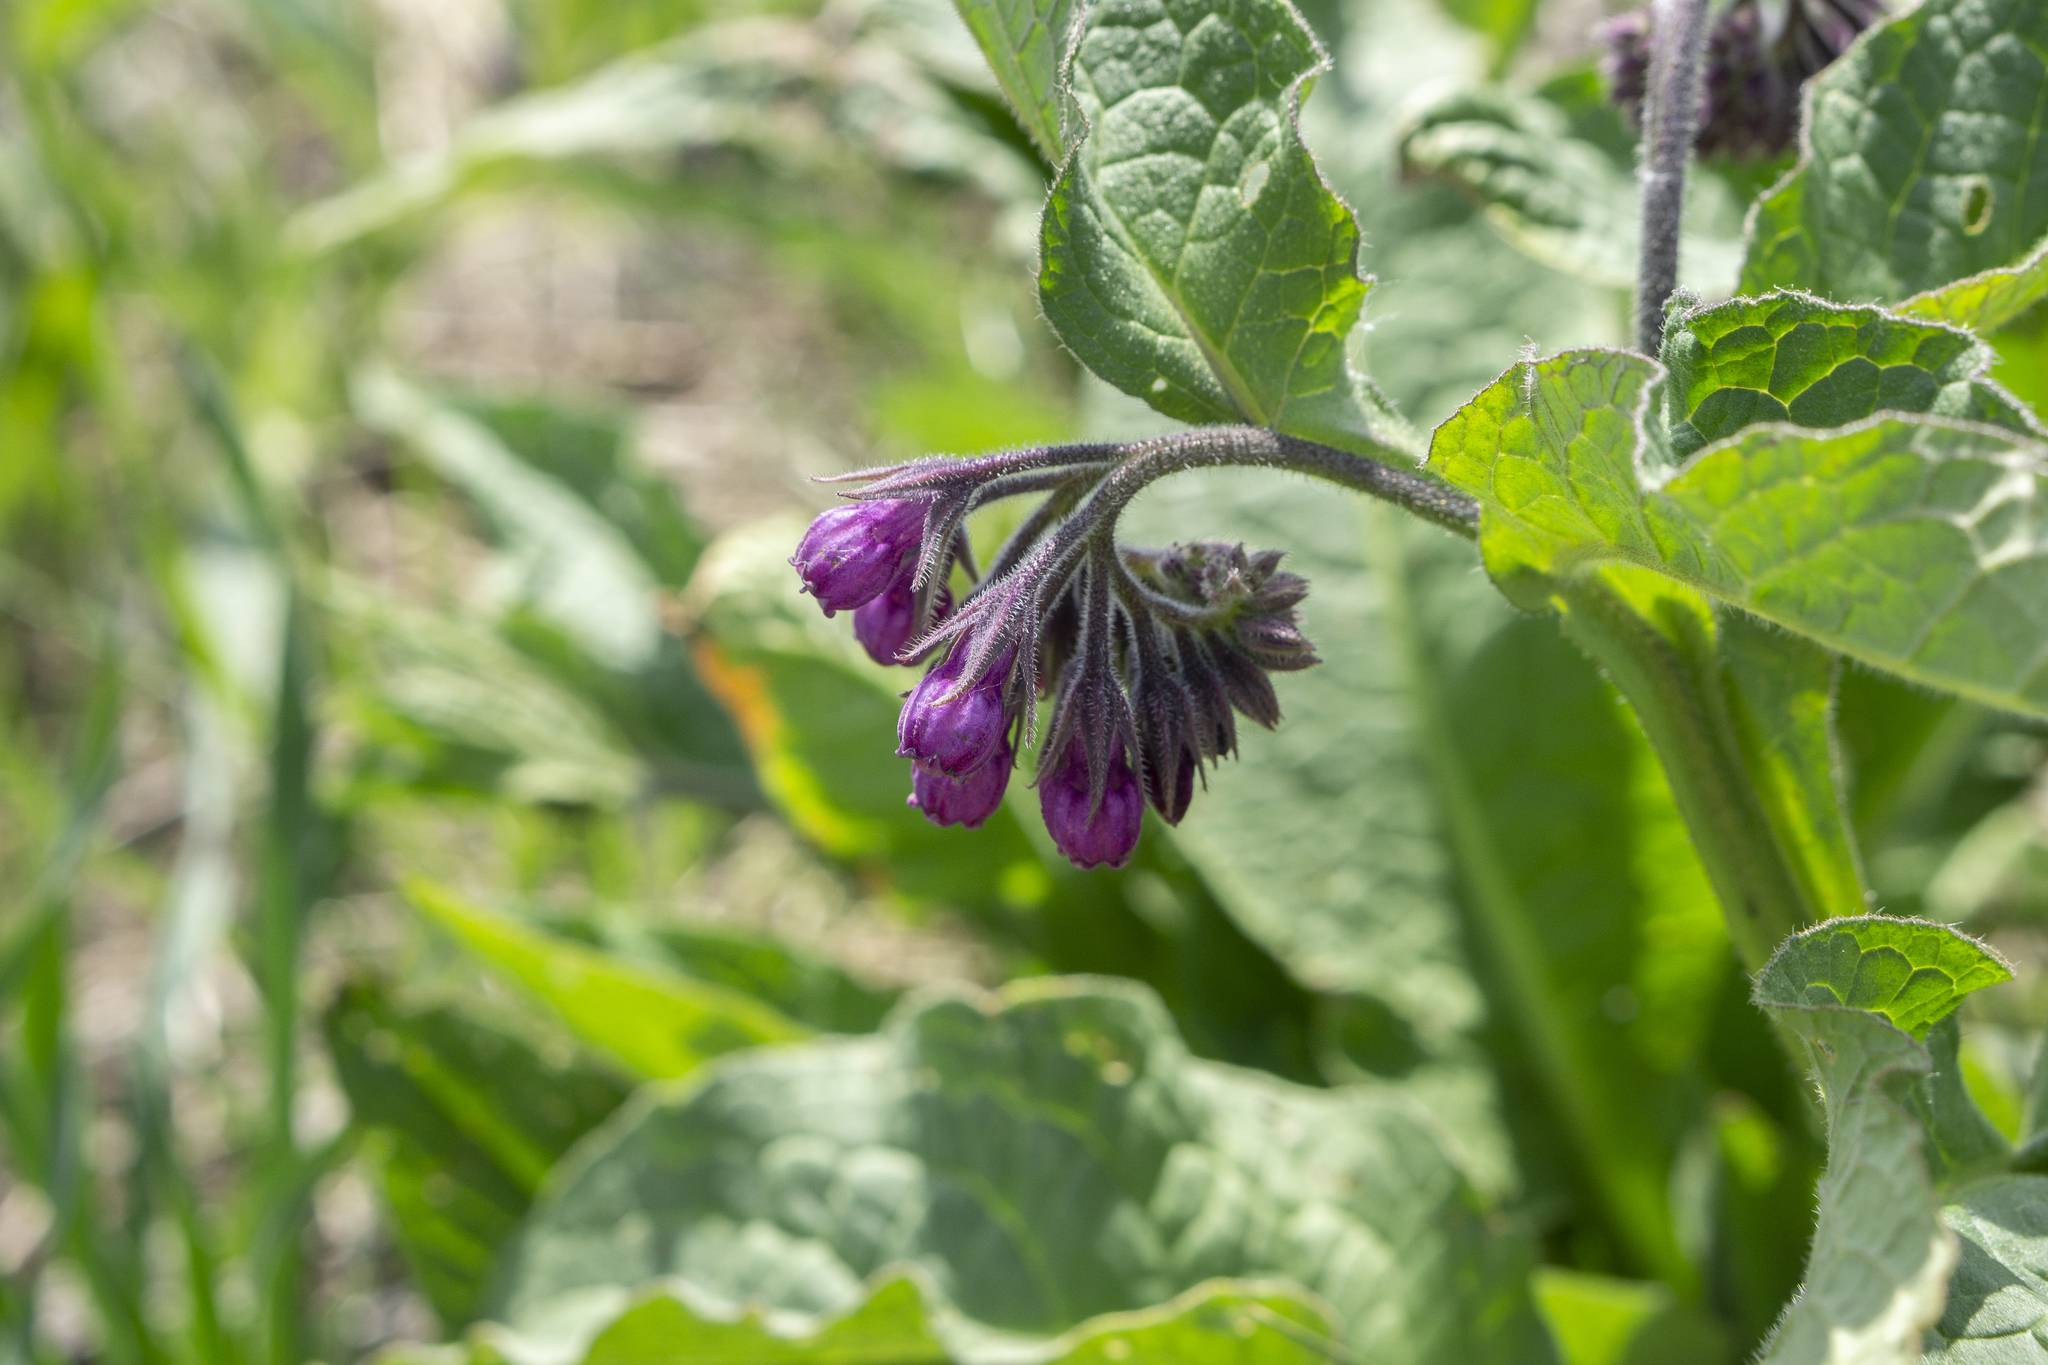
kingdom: Plantae
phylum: Tracheophyta
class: Magnoliopsida
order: Boraginales
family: Boraginaceae
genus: Symphytum
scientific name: Symphytum officinale
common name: Common comfrey
